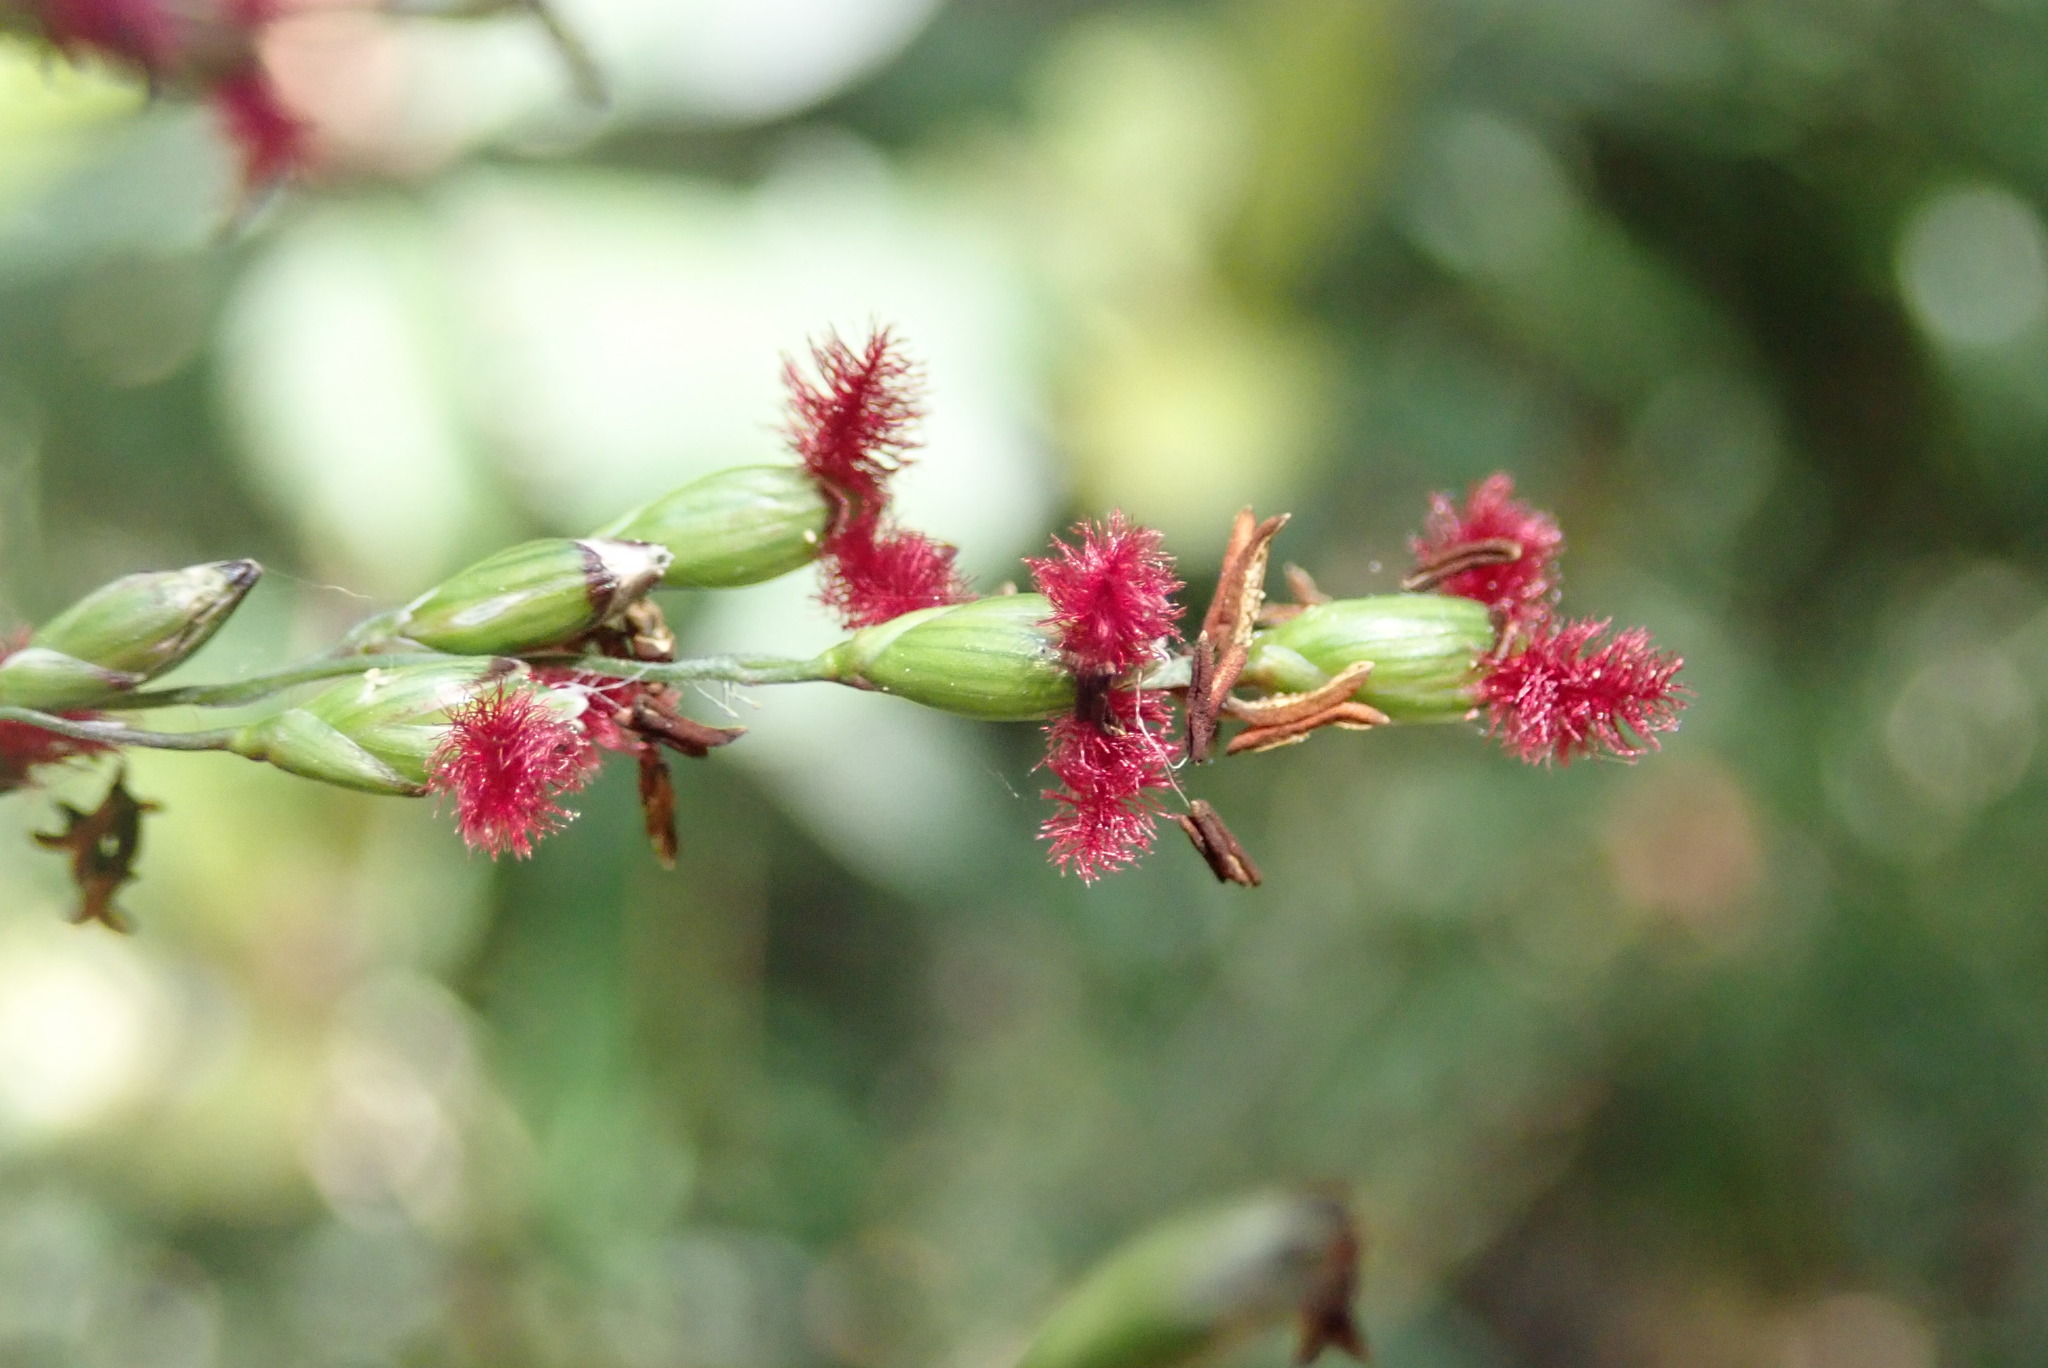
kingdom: Plantae
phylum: Tracheophyta
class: Liliopsida
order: Poales
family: Poaceae
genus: Panicum
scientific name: Panicum deustum
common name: Reed panicum
